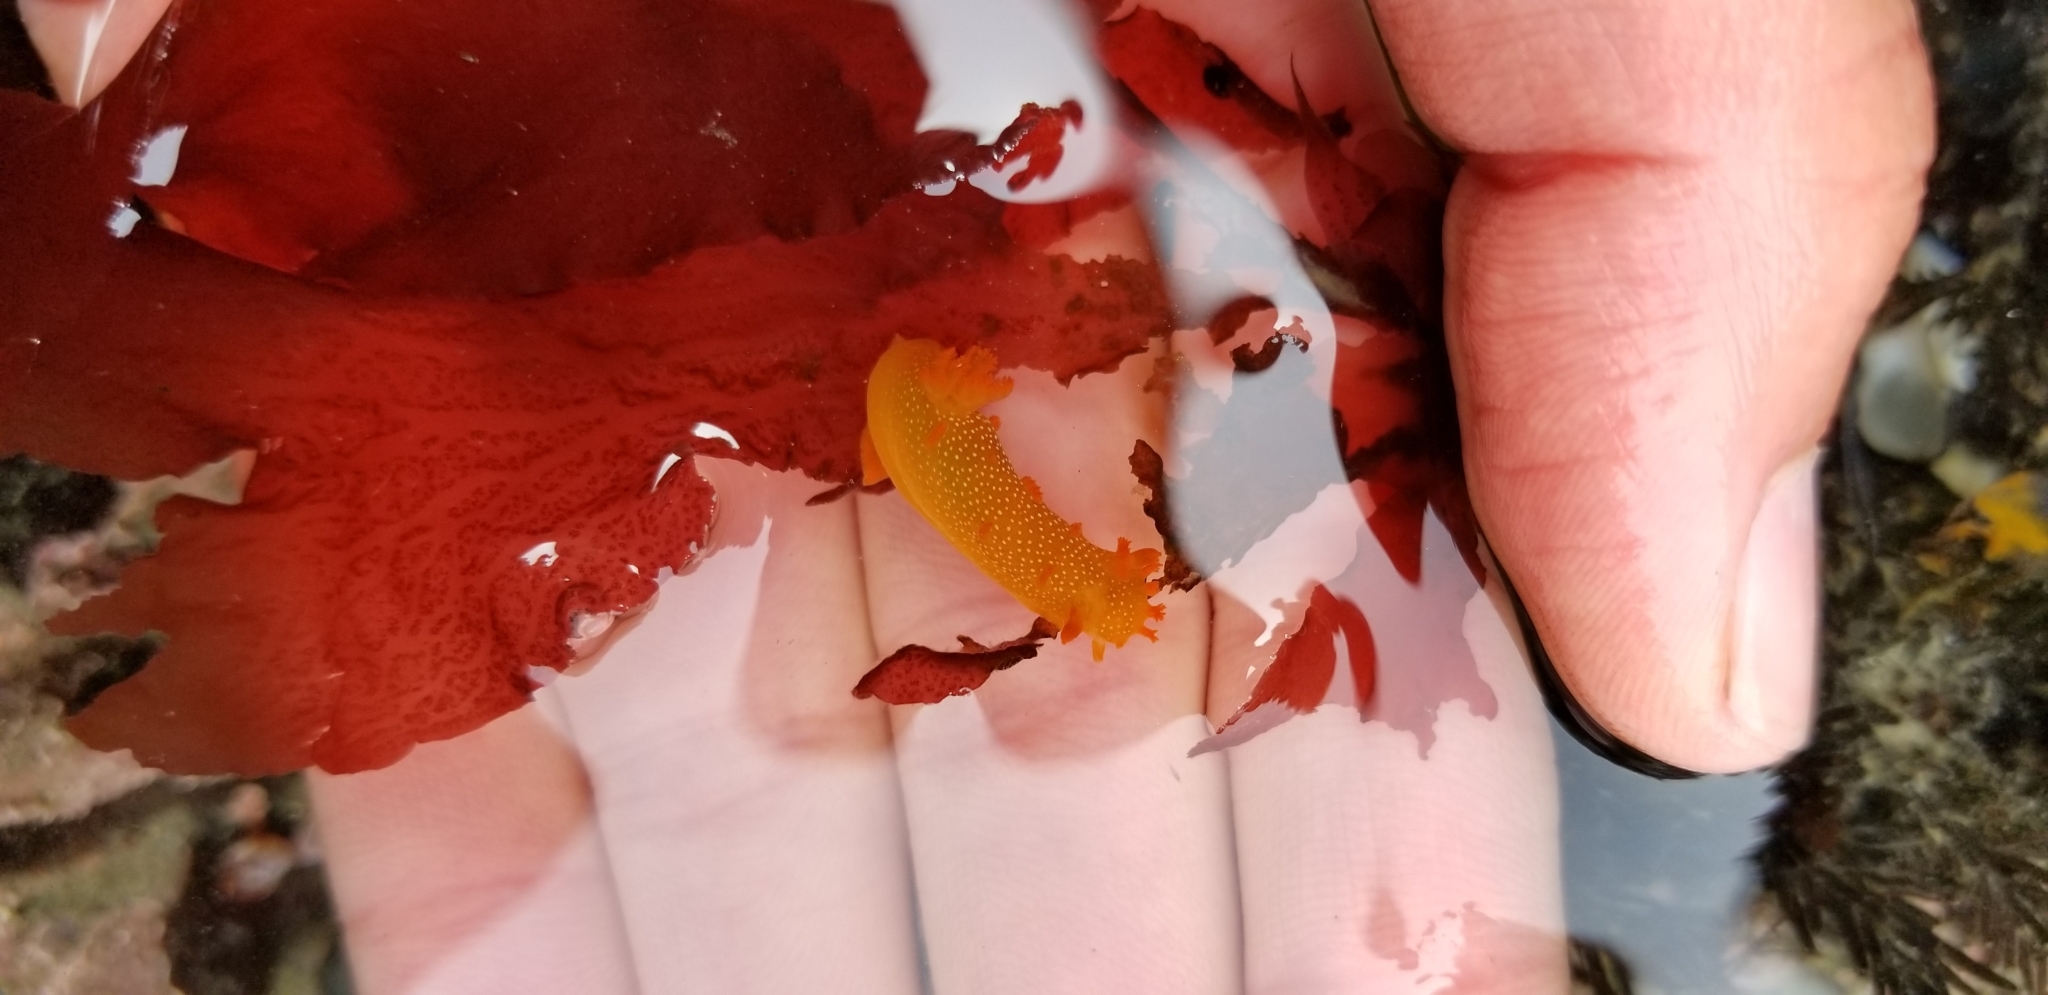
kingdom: Animalia
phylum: Mollusca
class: Gastropoda
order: Nudibranchia
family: Polyceridae
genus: Triopha
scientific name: Triopha maculata
